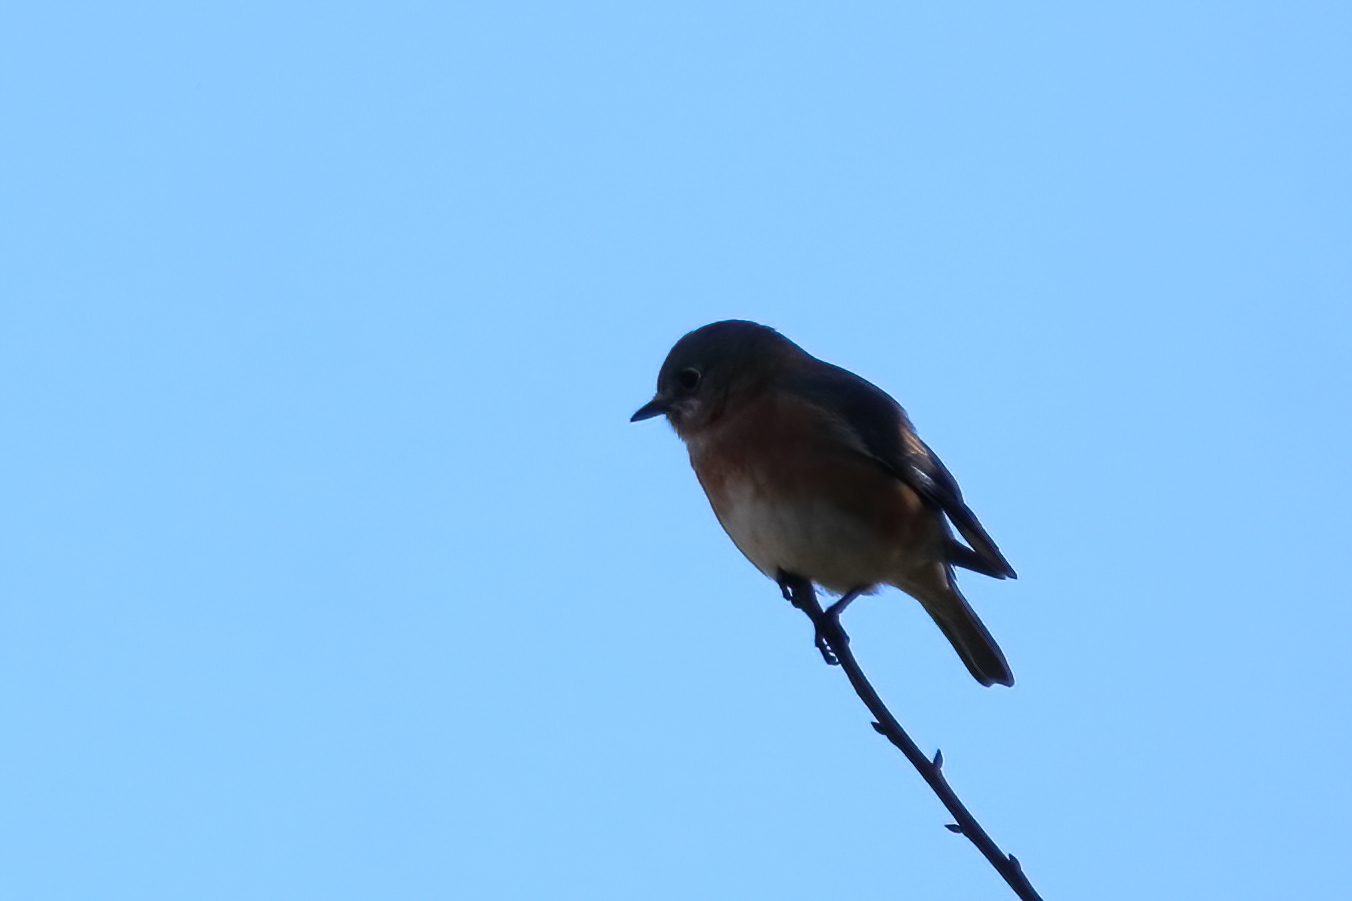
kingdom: Animalia
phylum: Chordata
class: Aves
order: Passeriformes
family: Turdidae
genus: Sialia
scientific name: Sialia sialis
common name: Eastern bluebird
